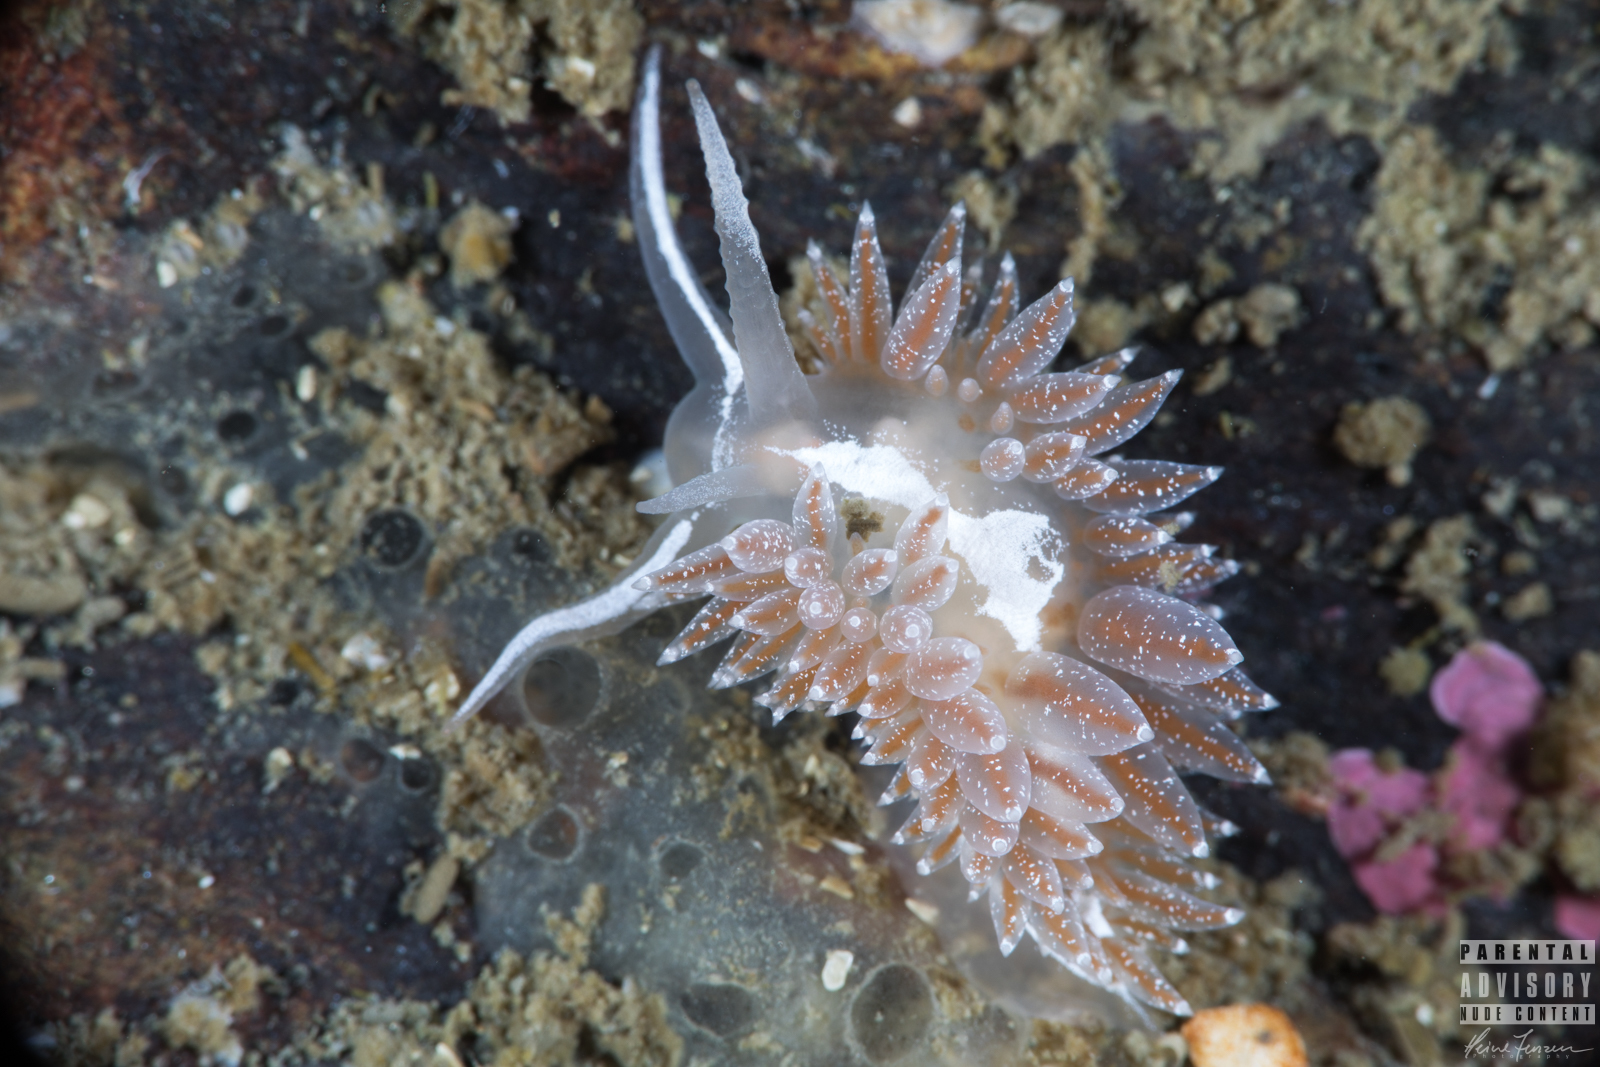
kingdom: Animalia
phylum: Mollusca
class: Gastropoda
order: Nudibranchia
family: Coryphellidae
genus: Coryphella
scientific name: Coryphella monicae
